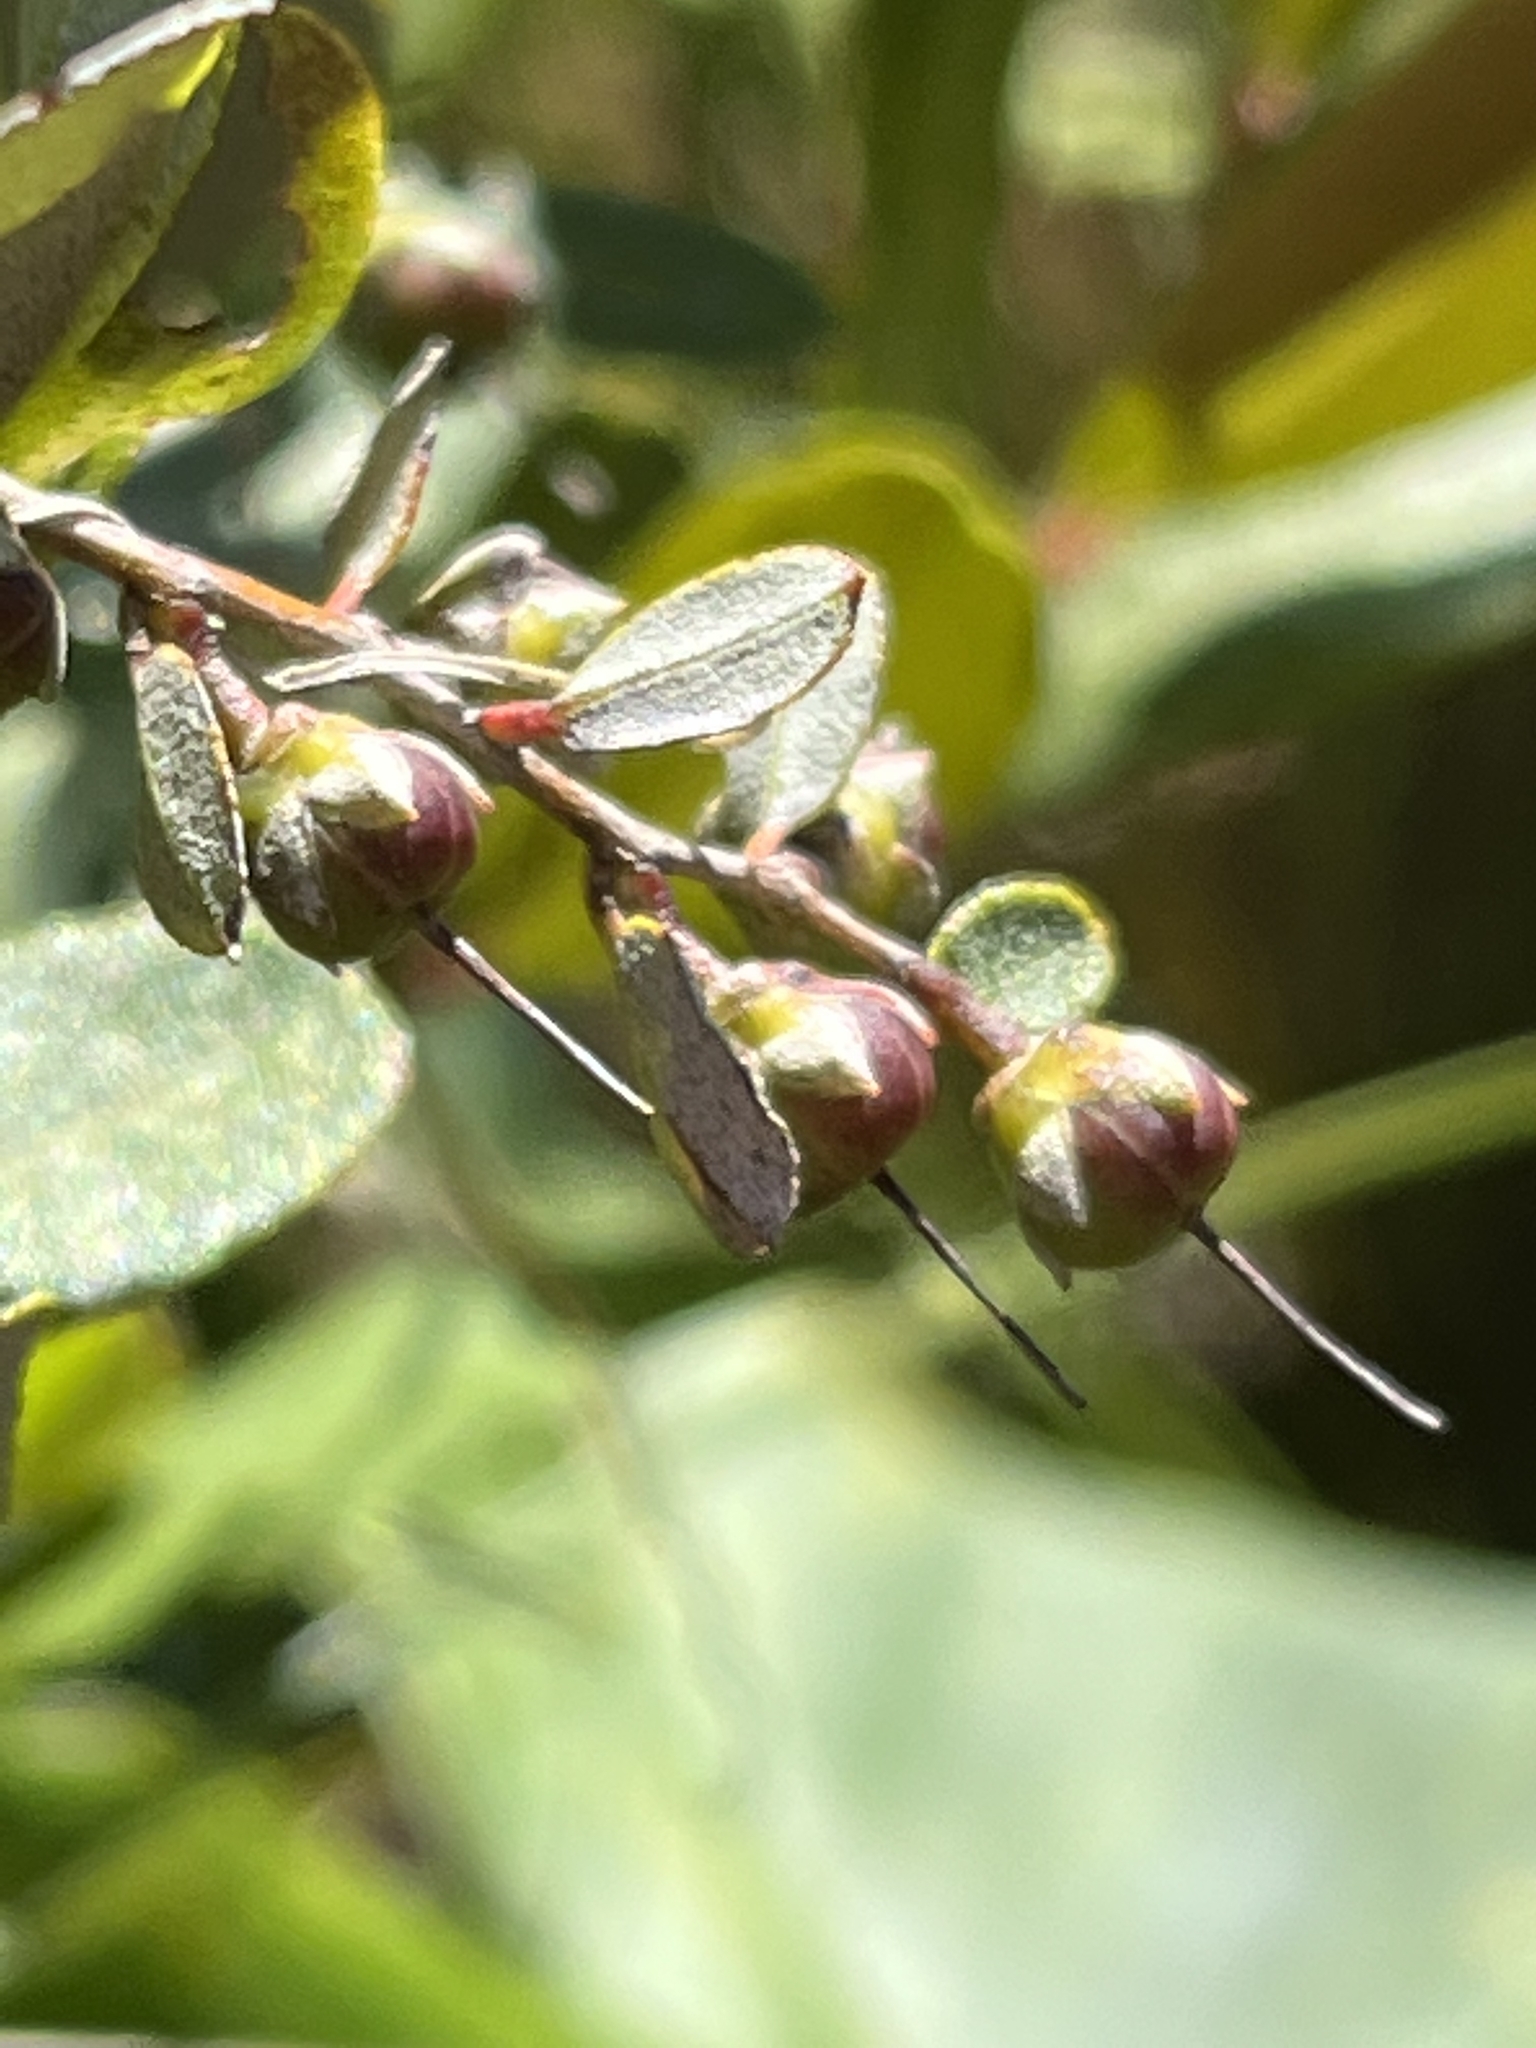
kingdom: Plantae
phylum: Tracheophyta
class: Magnoliopsida
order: Ericales
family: Ericaceae
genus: Chamaedaphne
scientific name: Chamaedaphne calyculata
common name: Leatherleaf
